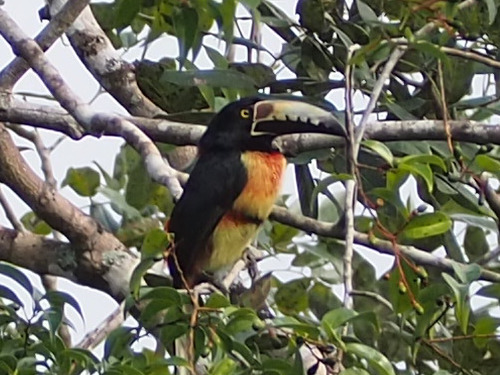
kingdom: Animalia
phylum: Chordata
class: Aves
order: Piciformes
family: Ramphastidae
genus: Pteroglossus
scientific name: Pteroglossus torquatus
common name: Collared aracari
